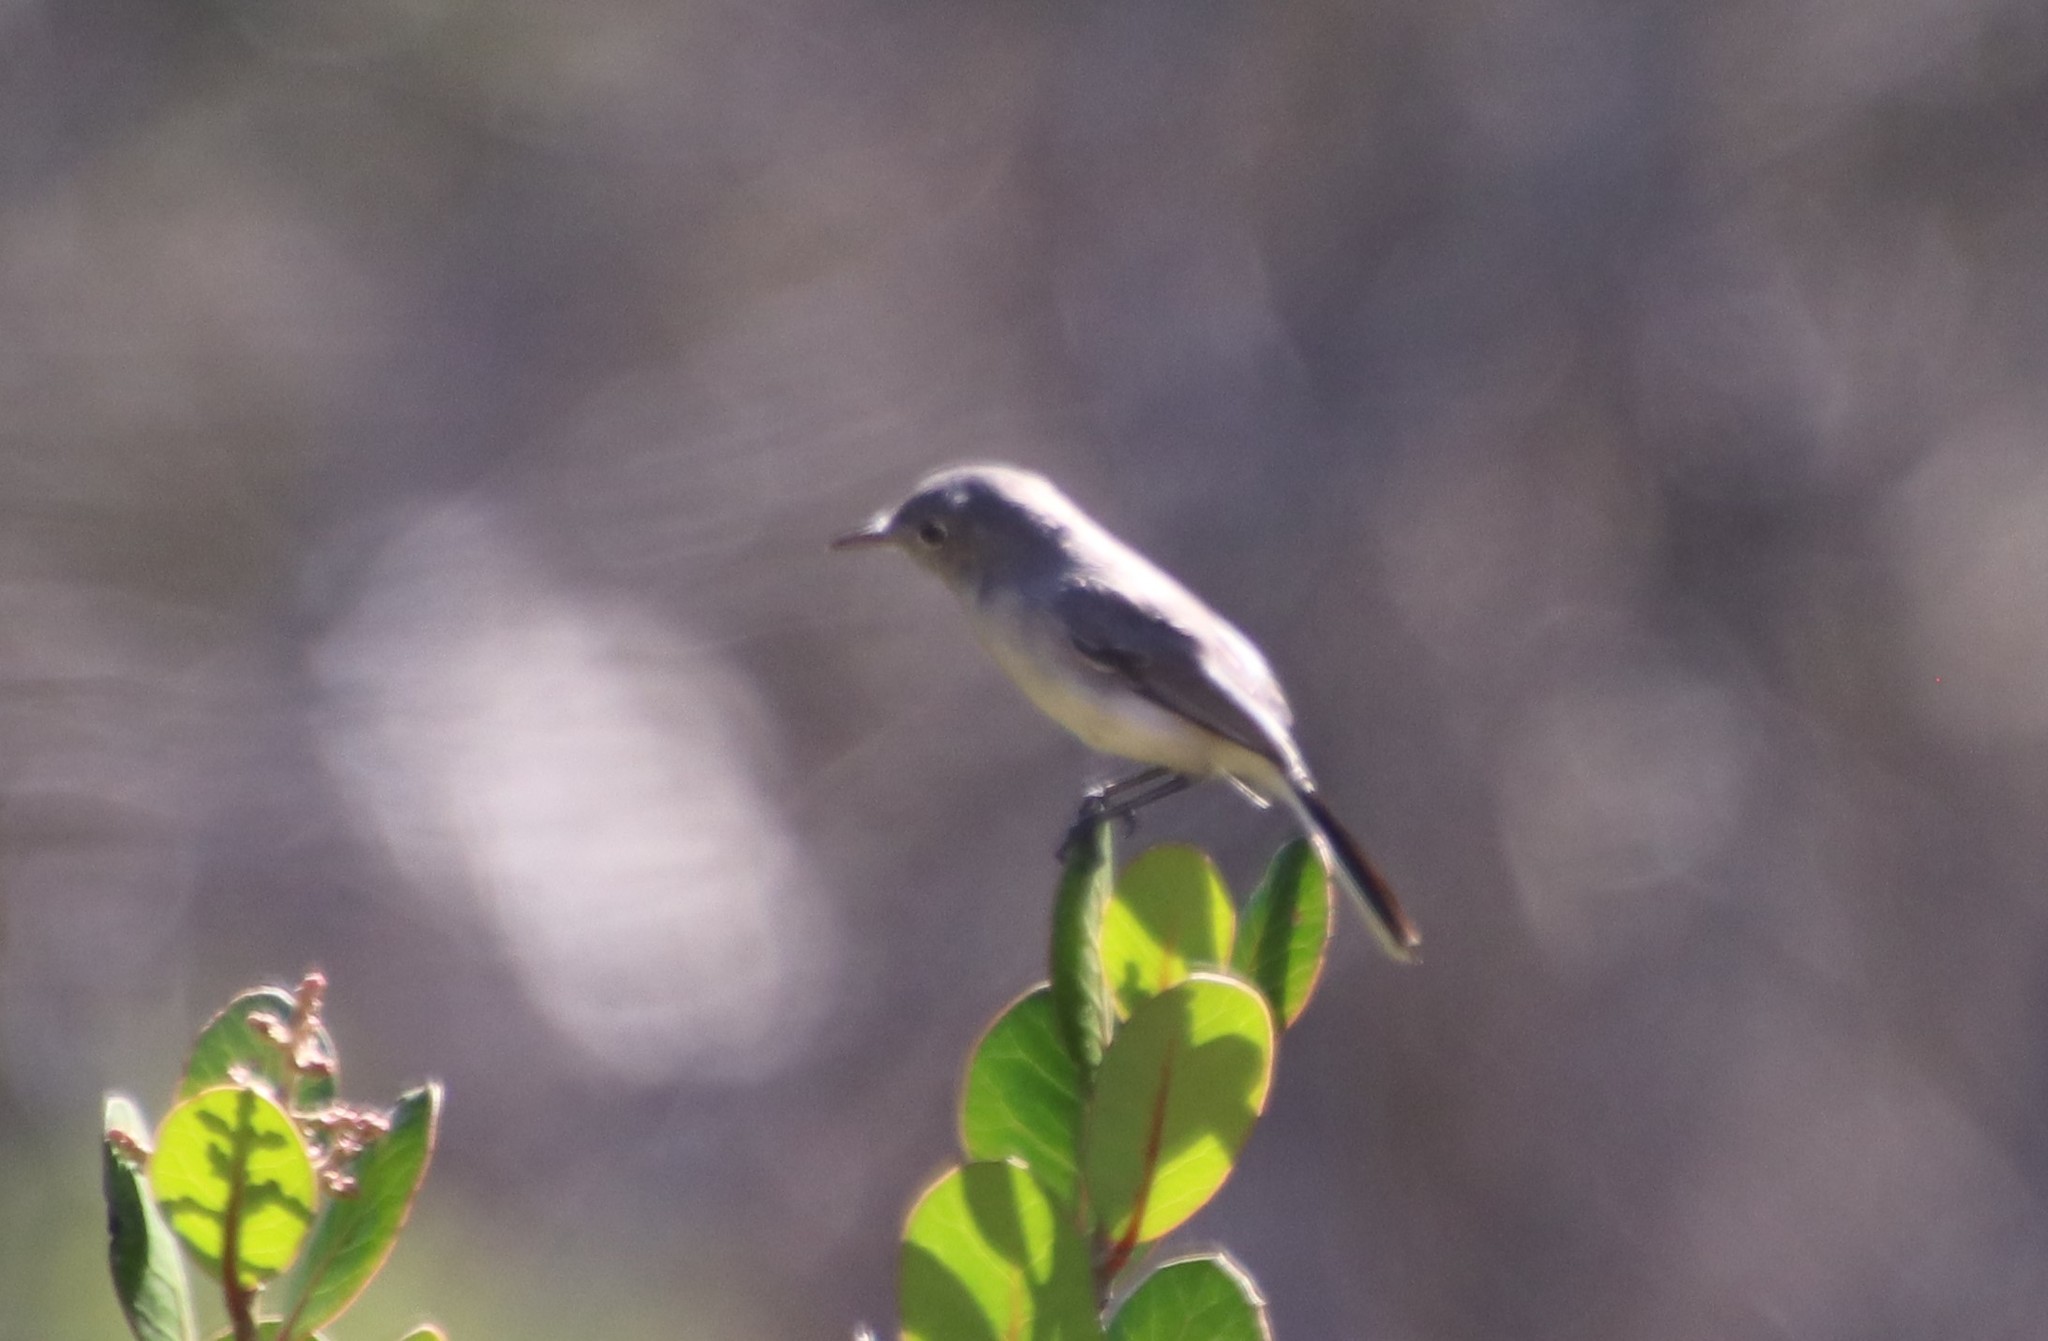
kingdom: Animalia
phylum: Chordata
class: Aves
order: Passeriformes
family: Polioptilidae
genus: Polioptila
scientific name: Polioptila caerulea
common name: Blue-gray gnatcatcher
